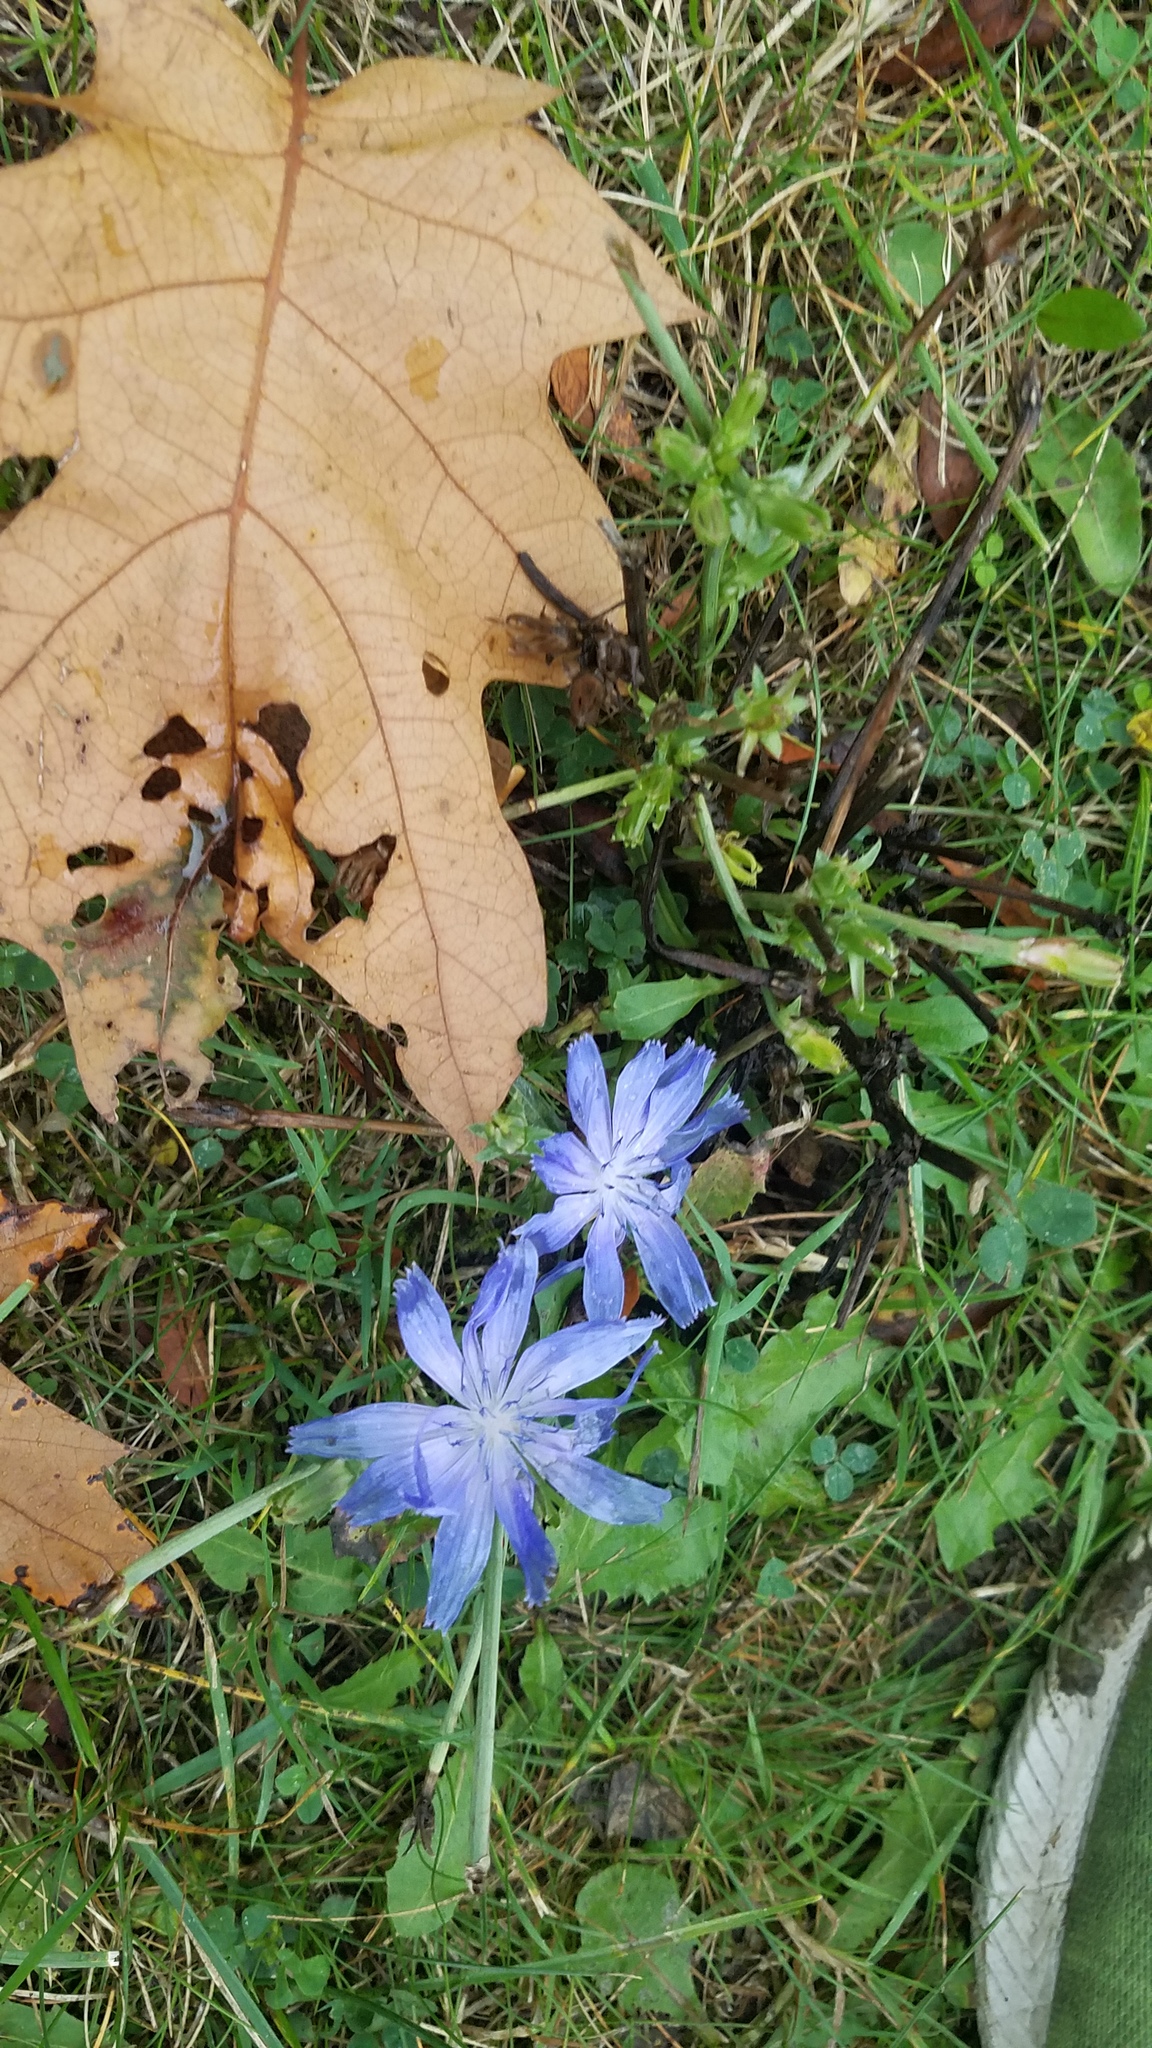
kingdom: Plantae
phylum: Tracheophyta
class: Magnoliopsida
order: Asterales
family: Asteraceae
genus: Cichorium
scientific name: Cichorium intybus
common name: Chicory
